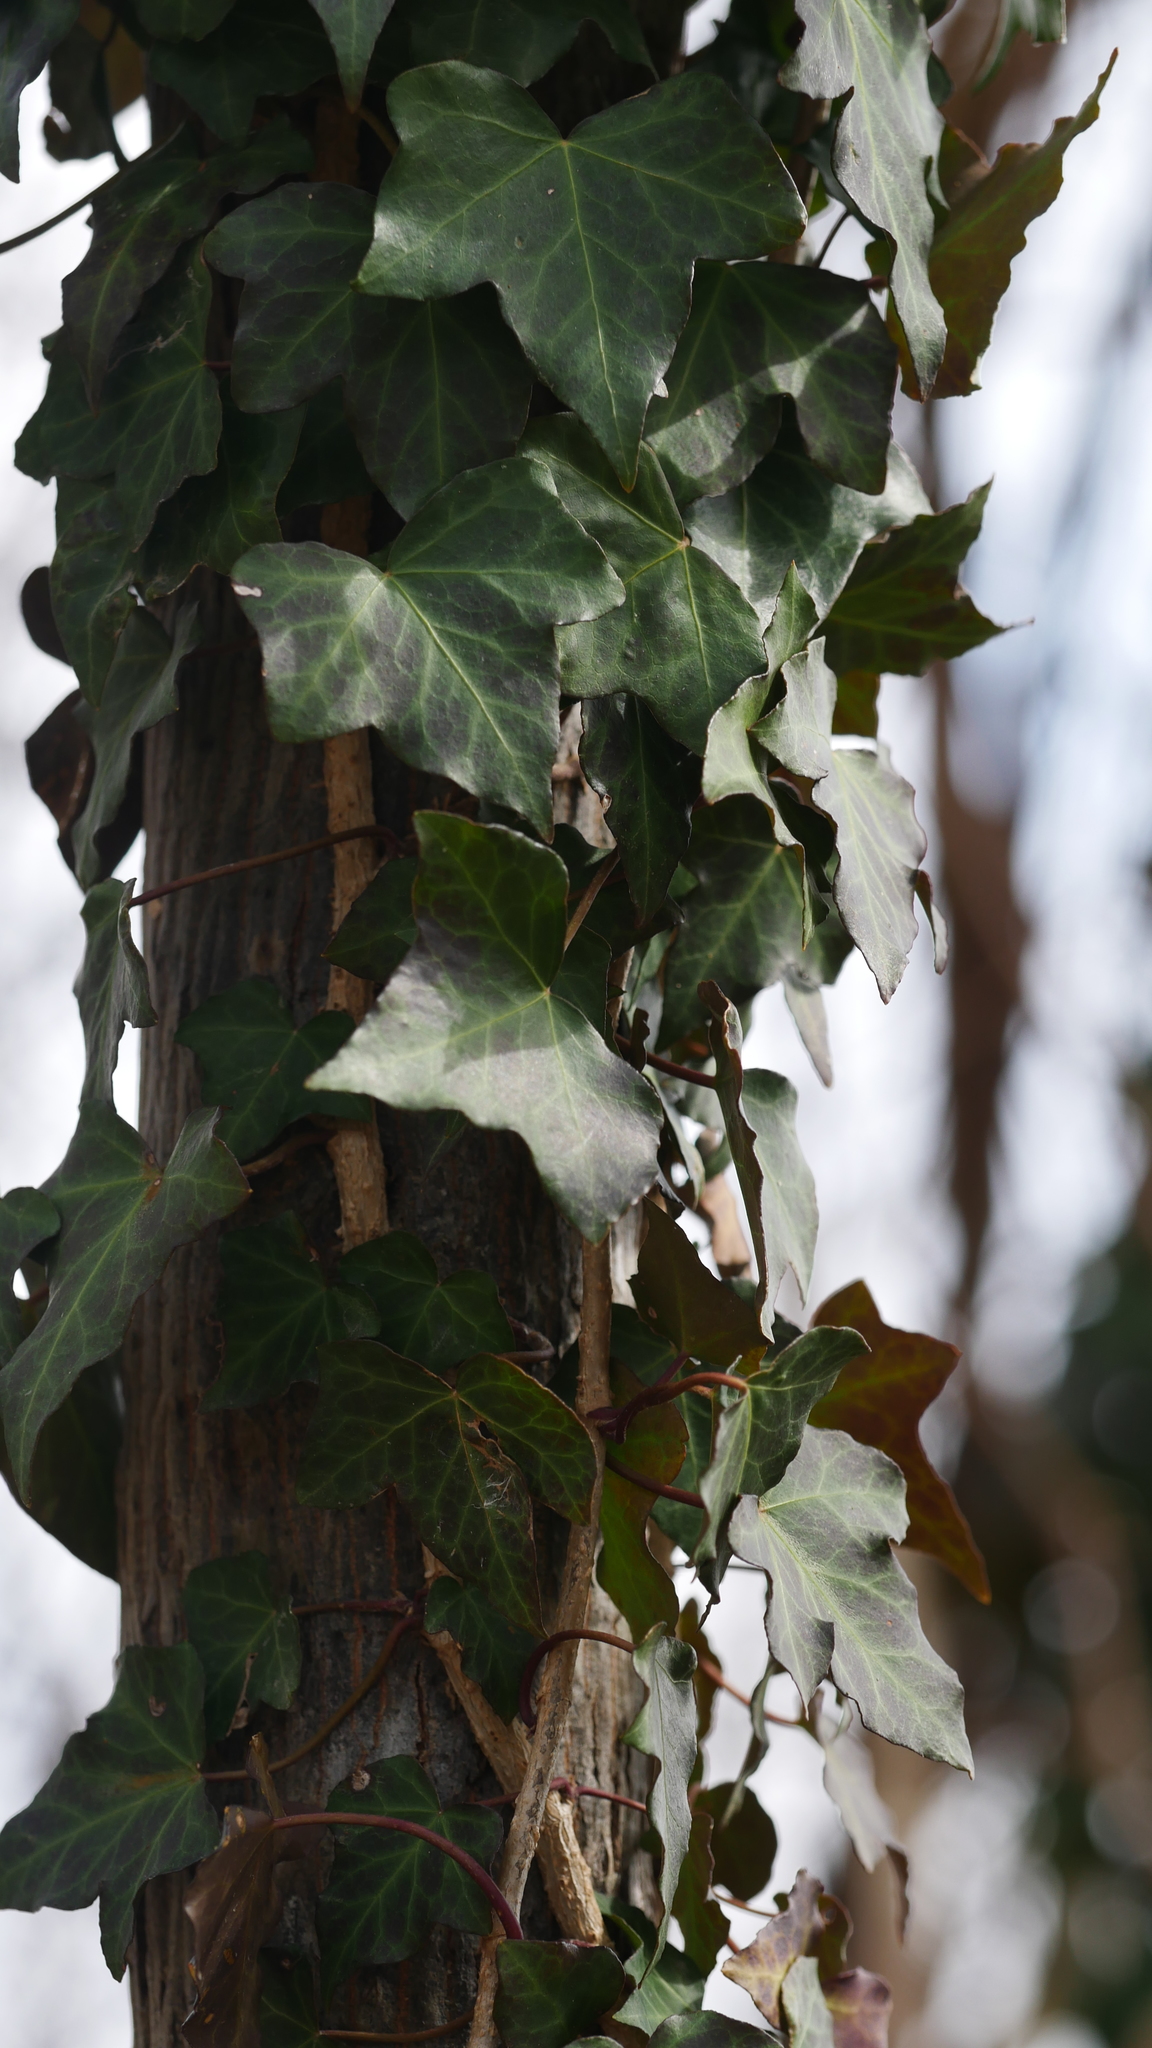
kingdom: Plantae
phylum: Tracheophyta
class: Magnoliopsida
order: Apiales
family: Araliaceae
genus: Hedera
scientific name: Hedera hibernica
